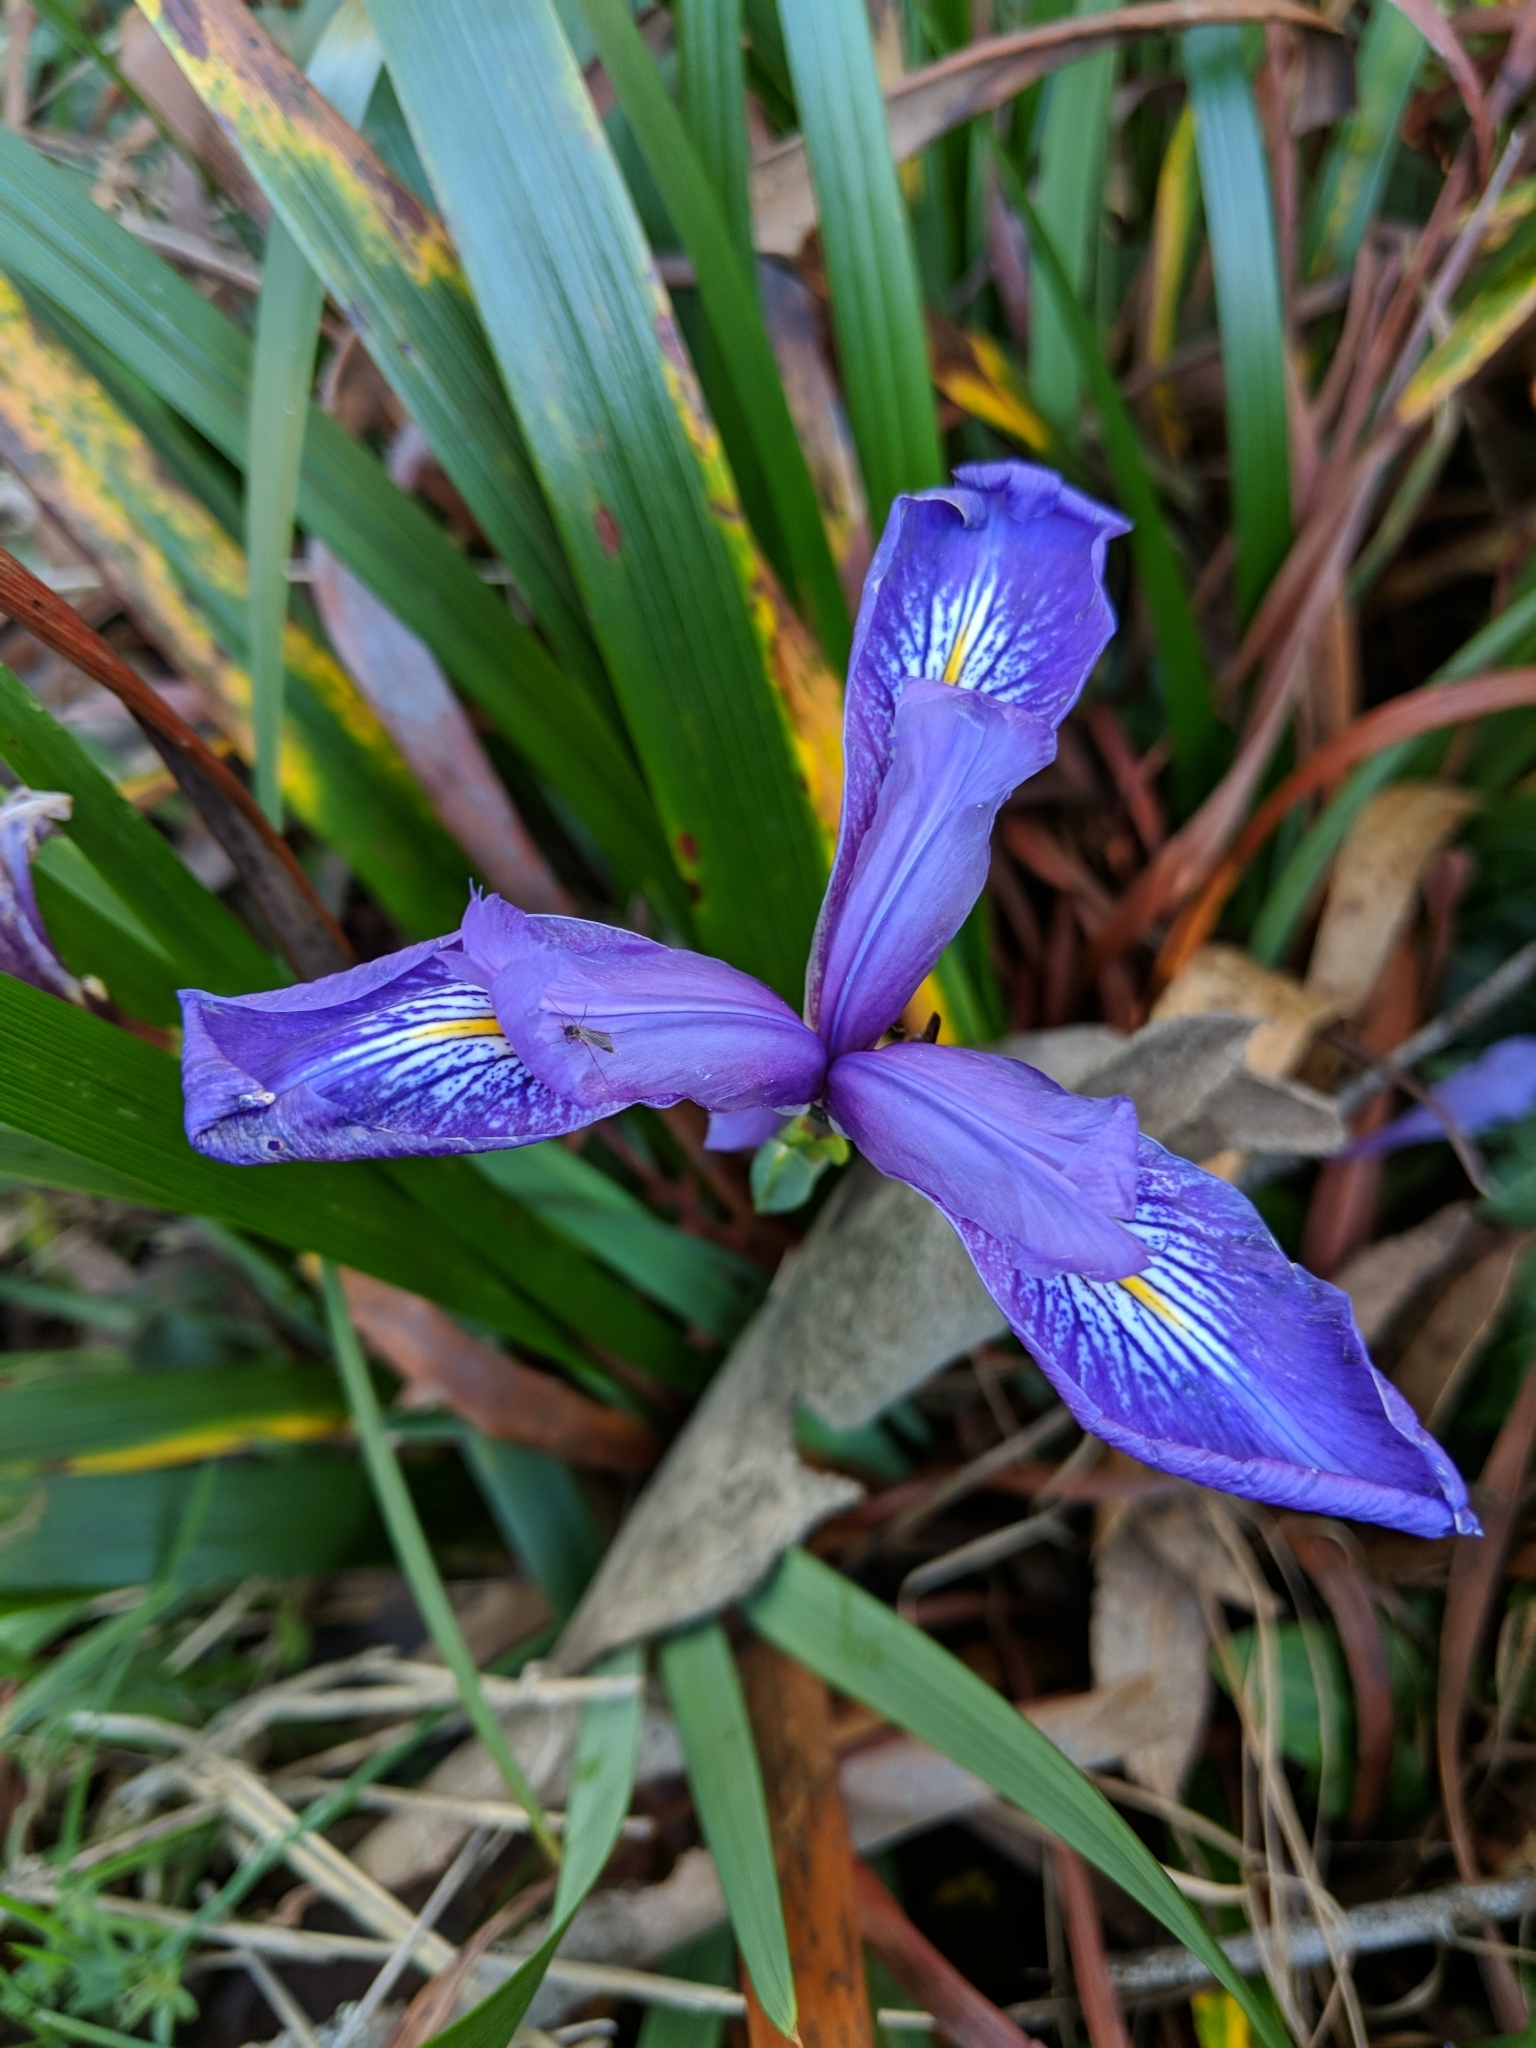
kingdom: Plantae
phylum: Tracheophyta
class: Liliopsida
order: Asparagales
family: Iridaceae
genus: Iris
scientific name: Iris douglasiana
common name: Marin iris
